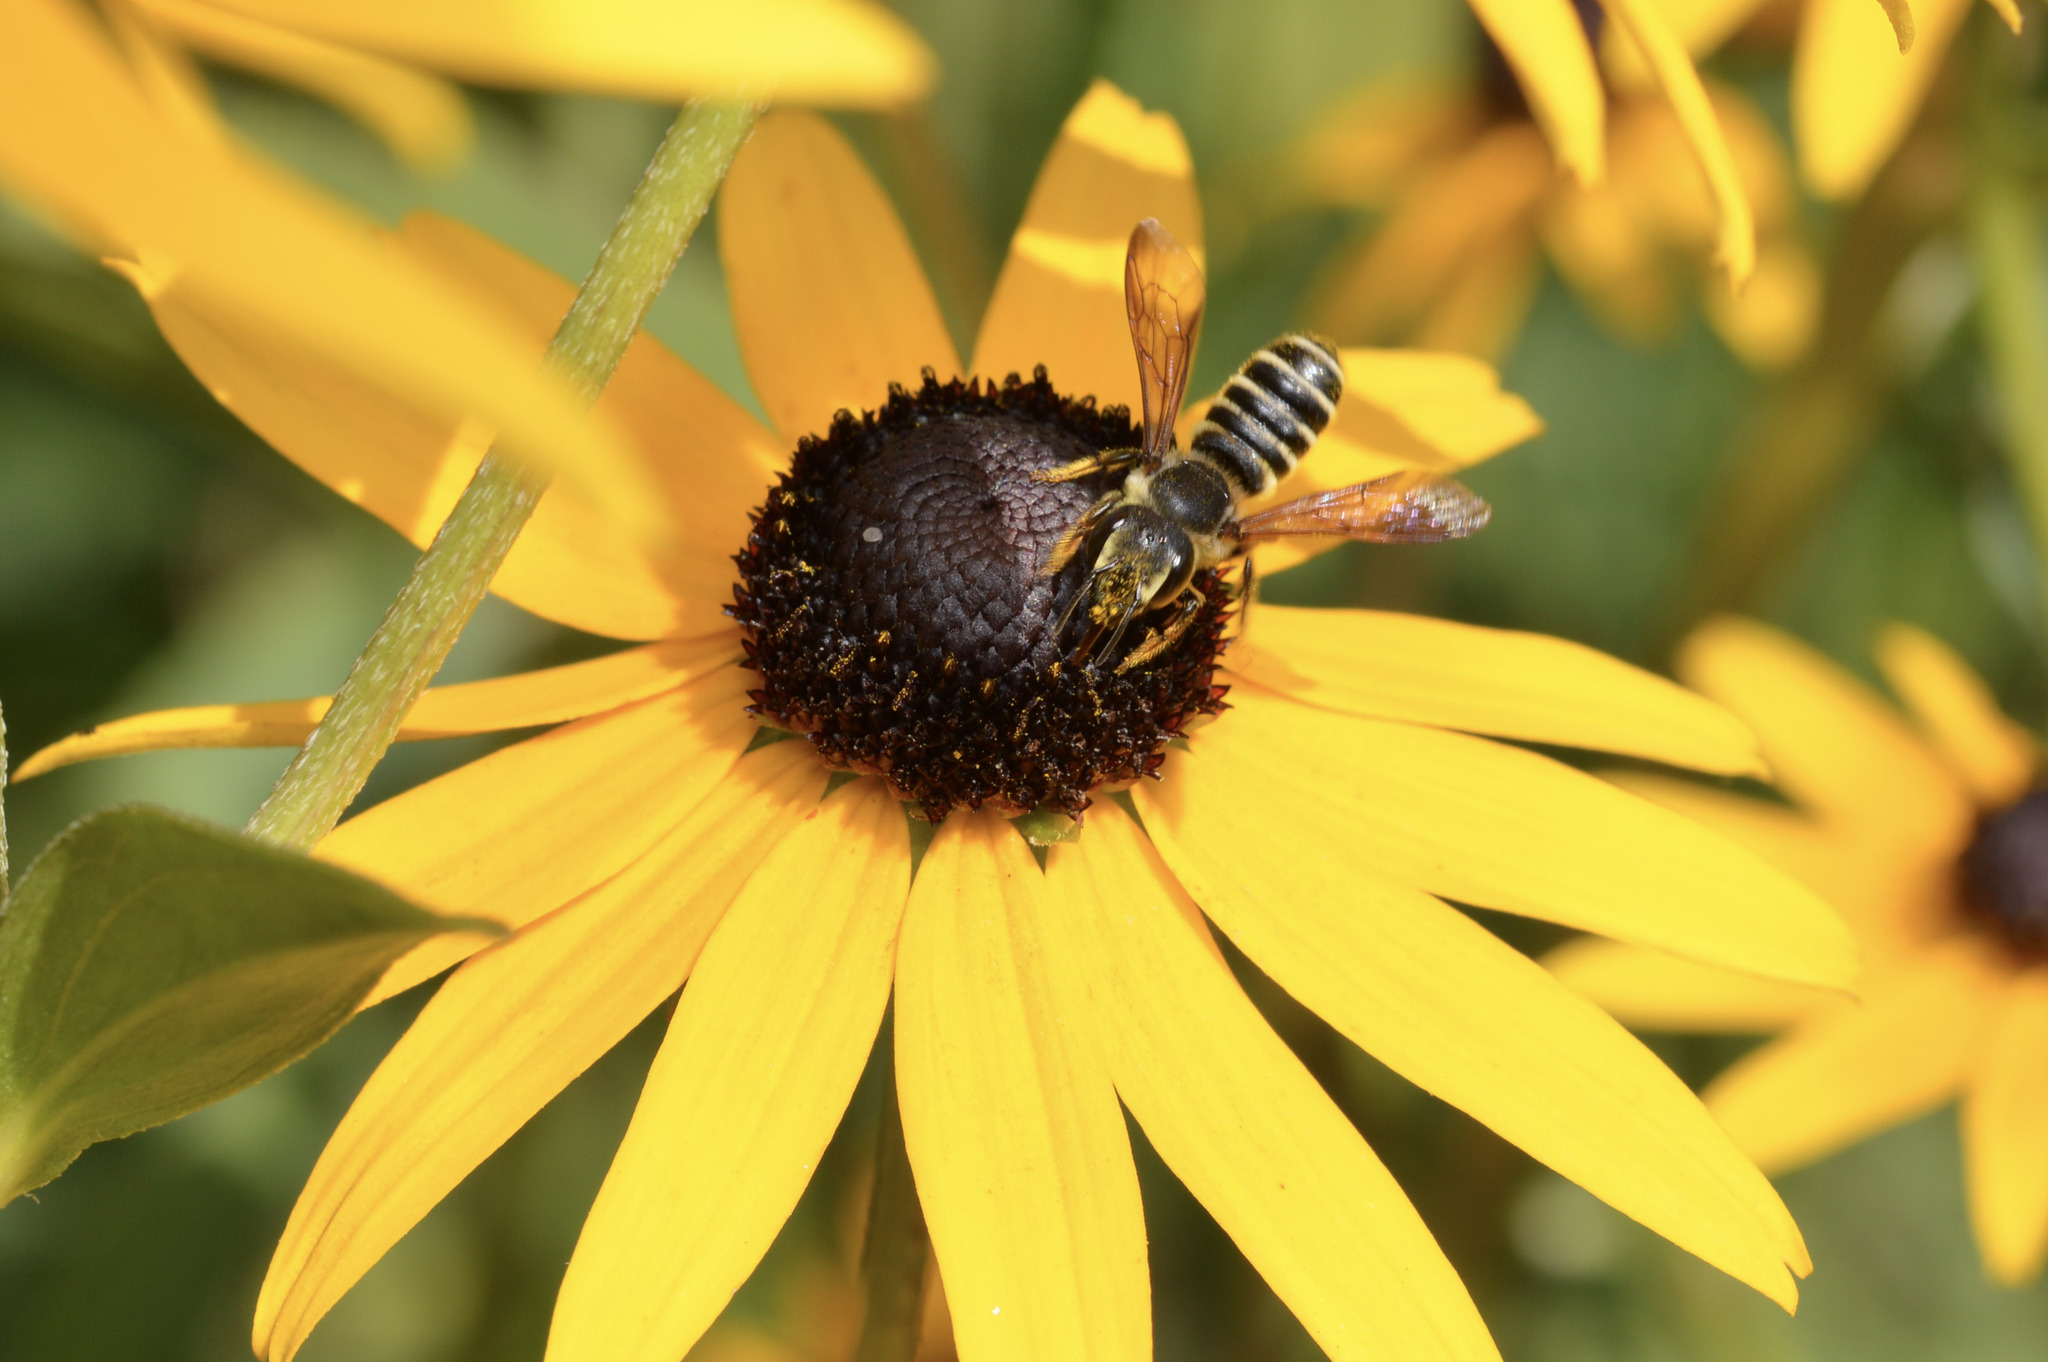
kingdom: Animalia
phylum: Arthropoda
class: Insecta
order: Hymenoptera
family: Megachilidae
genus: Megachile
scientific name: Megachile inimica
